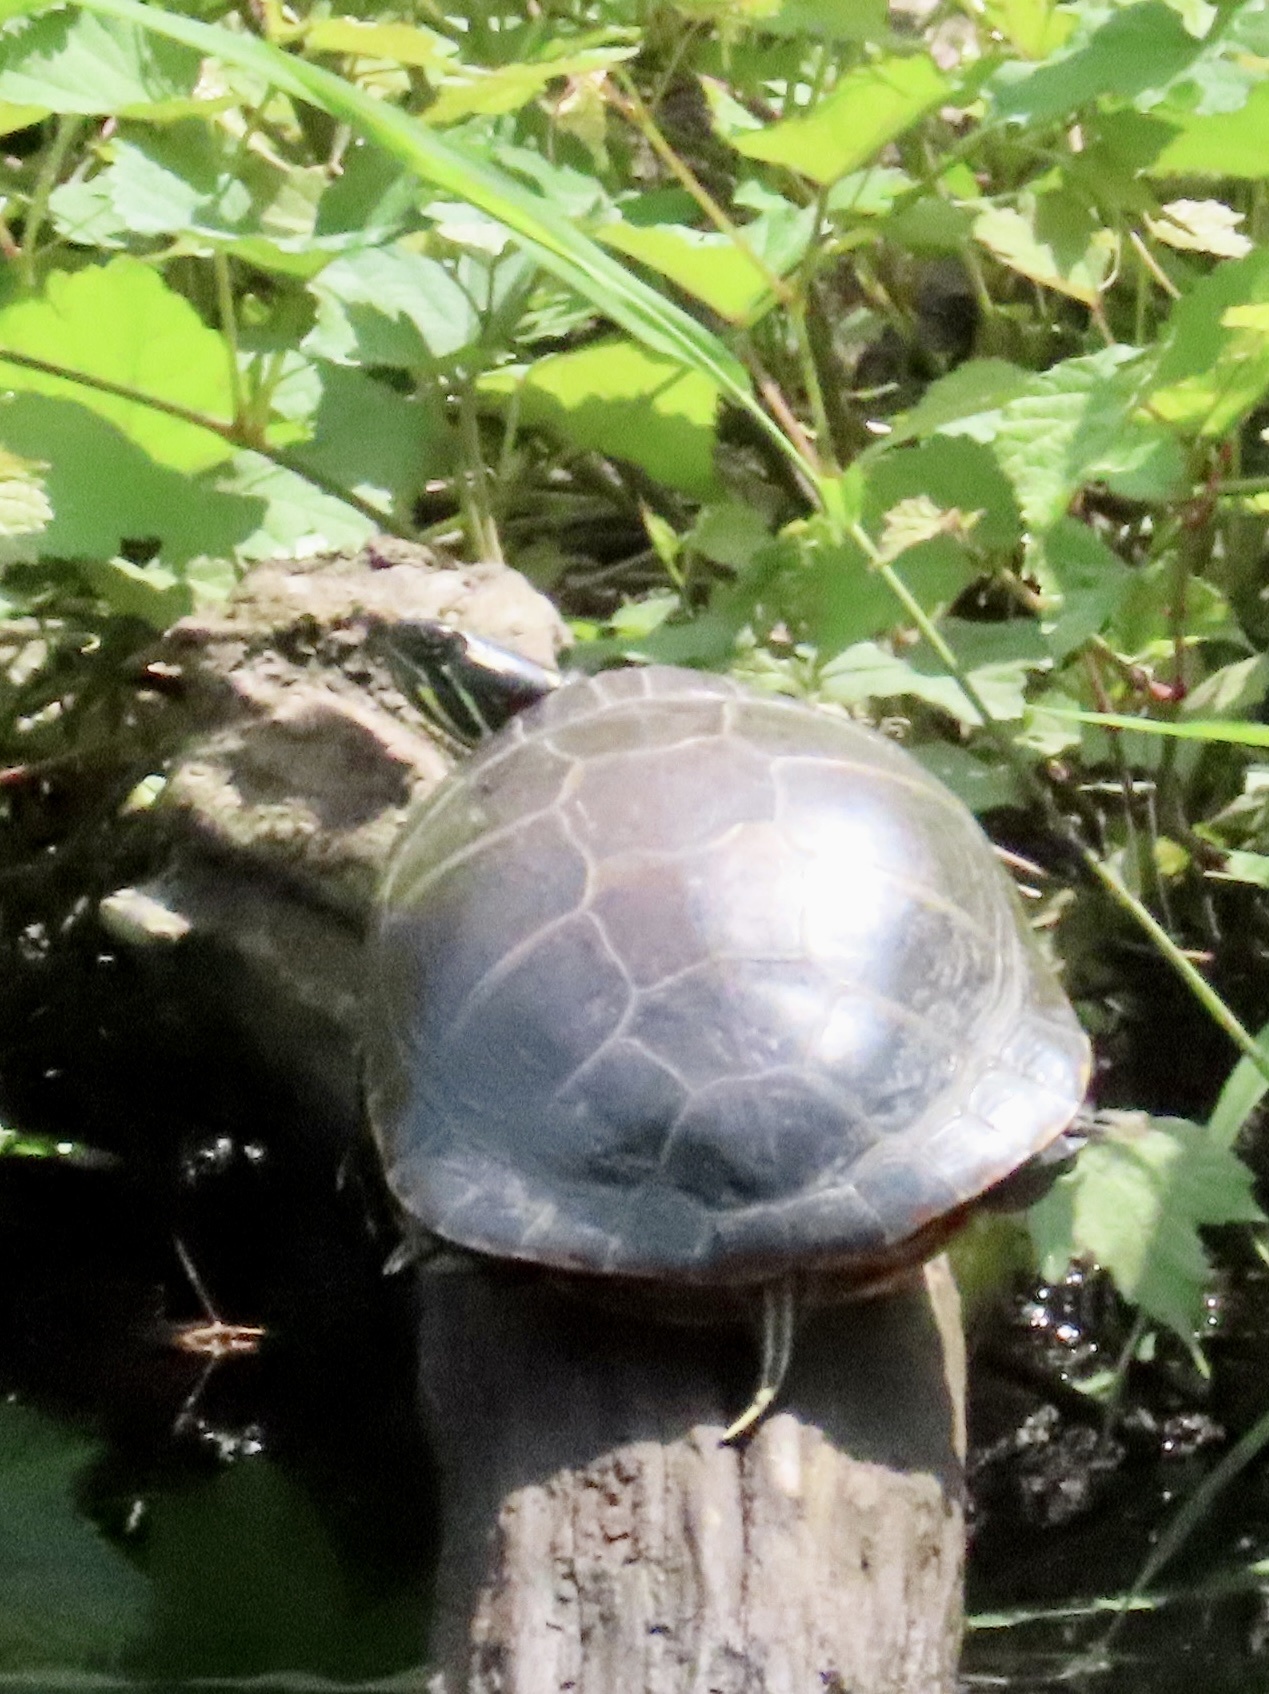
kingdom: Animalia
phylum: Chordata
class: Testudines
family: Emydidae
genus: Chrysemys
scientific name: Chrysemys picta
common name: Painted turtle
